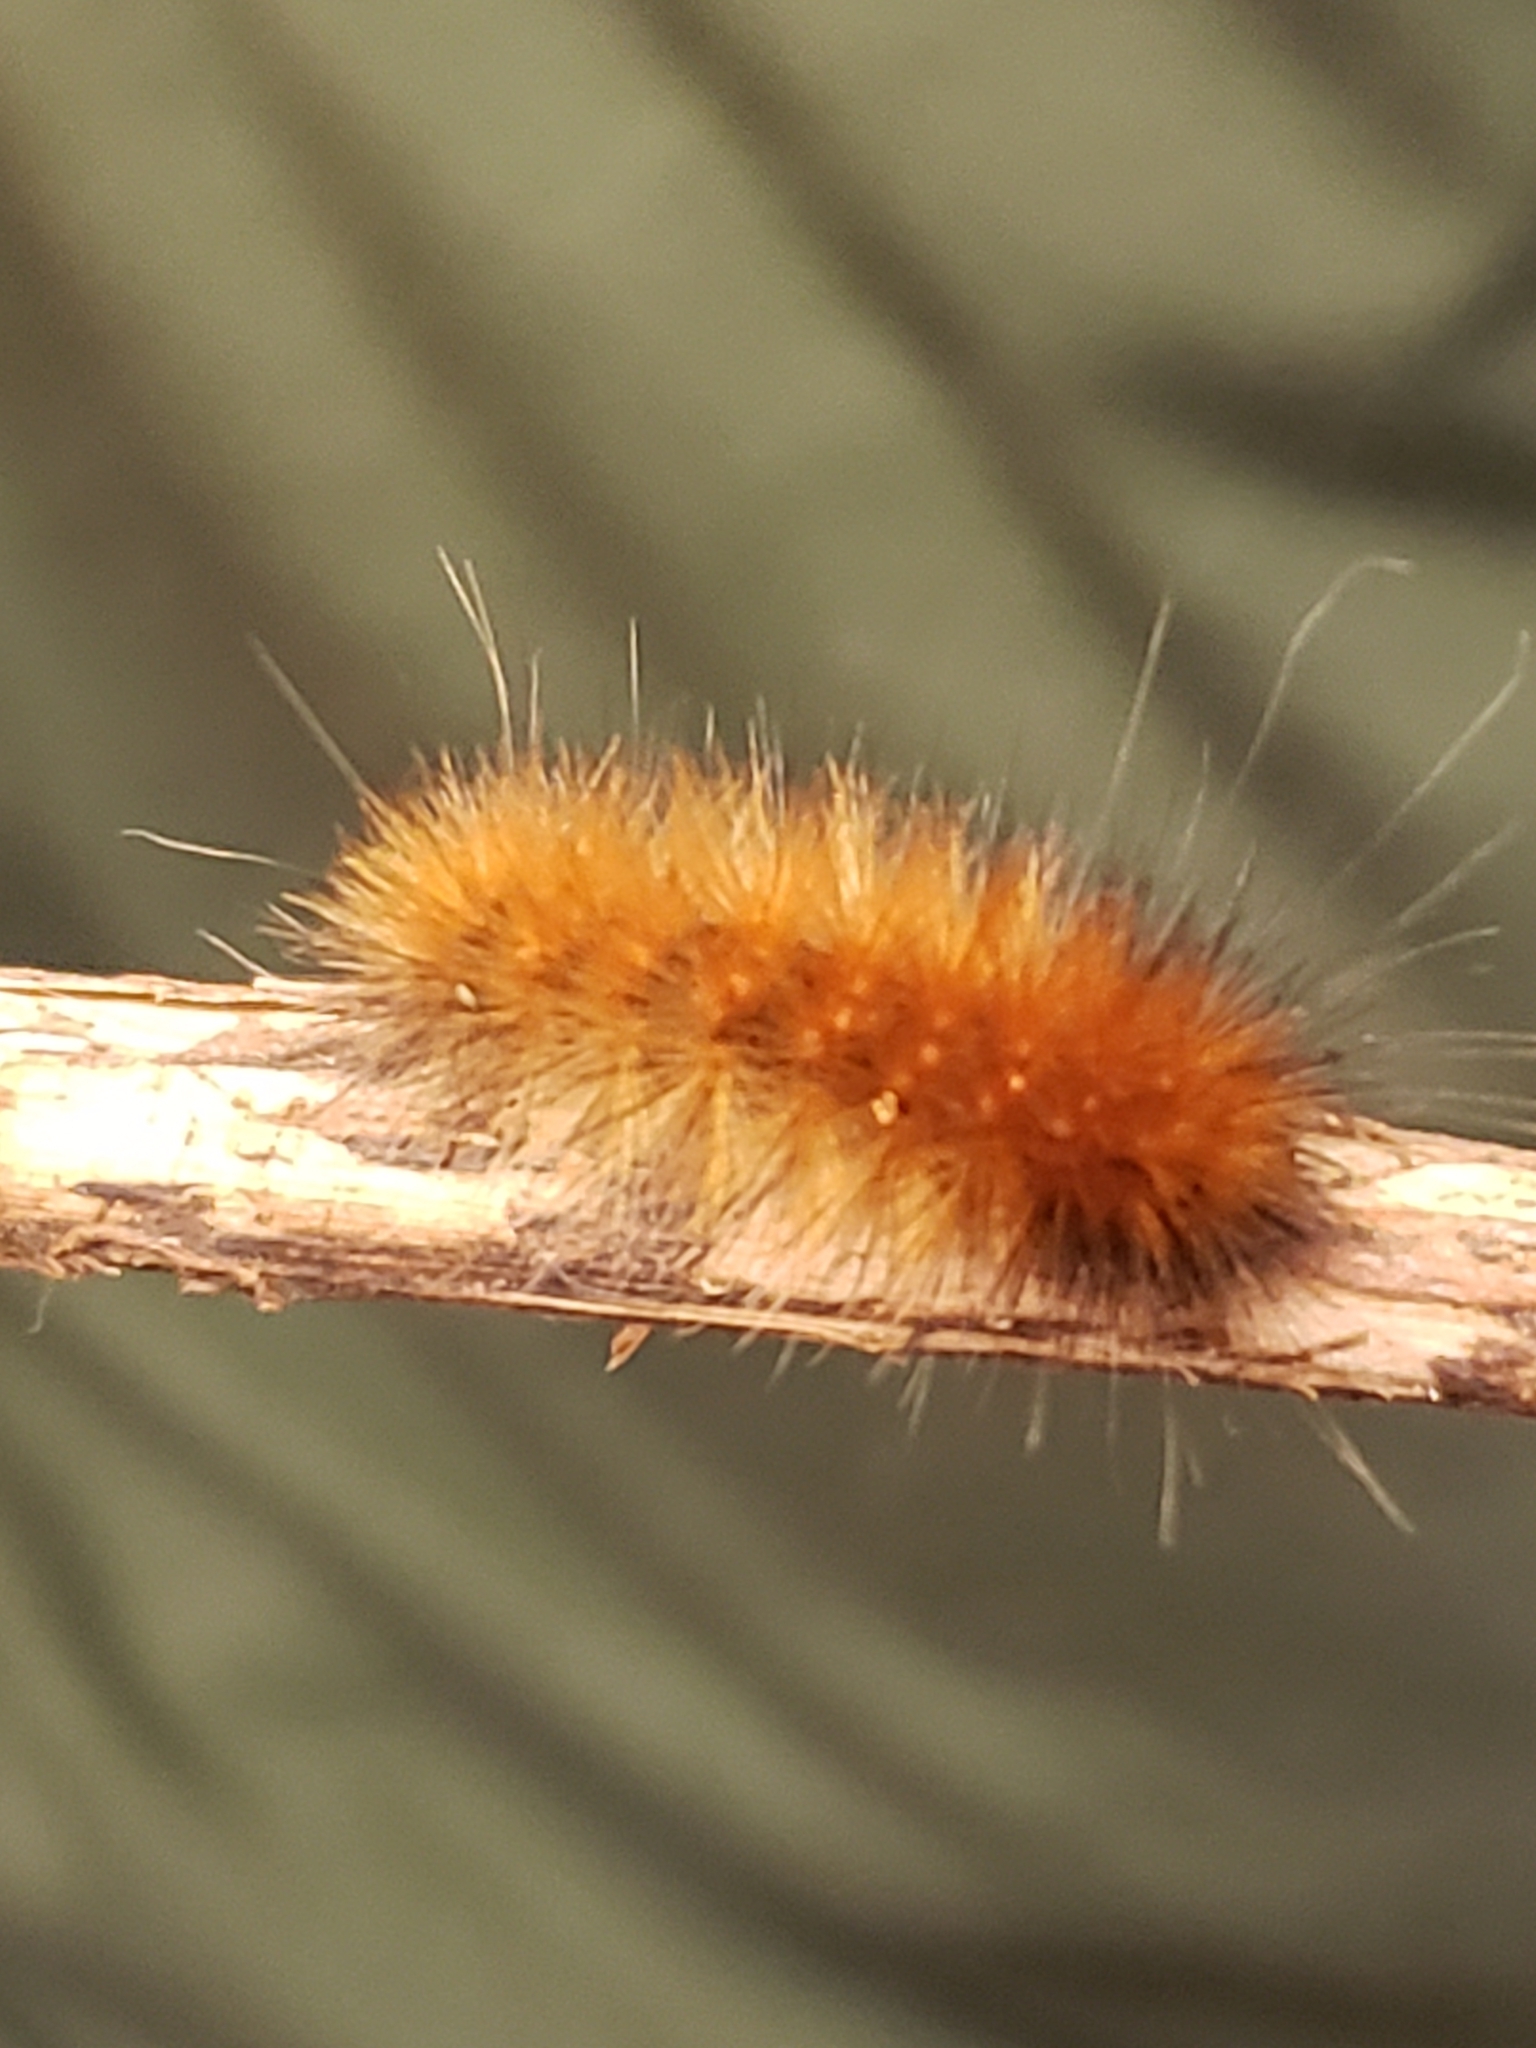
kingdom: Animalia
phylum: Arthropoda
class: Insecta
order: Lepidoptera
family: Erebidae
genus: Spilosoma
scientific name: Spilosoma virginica
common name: Virginia tiger moth
